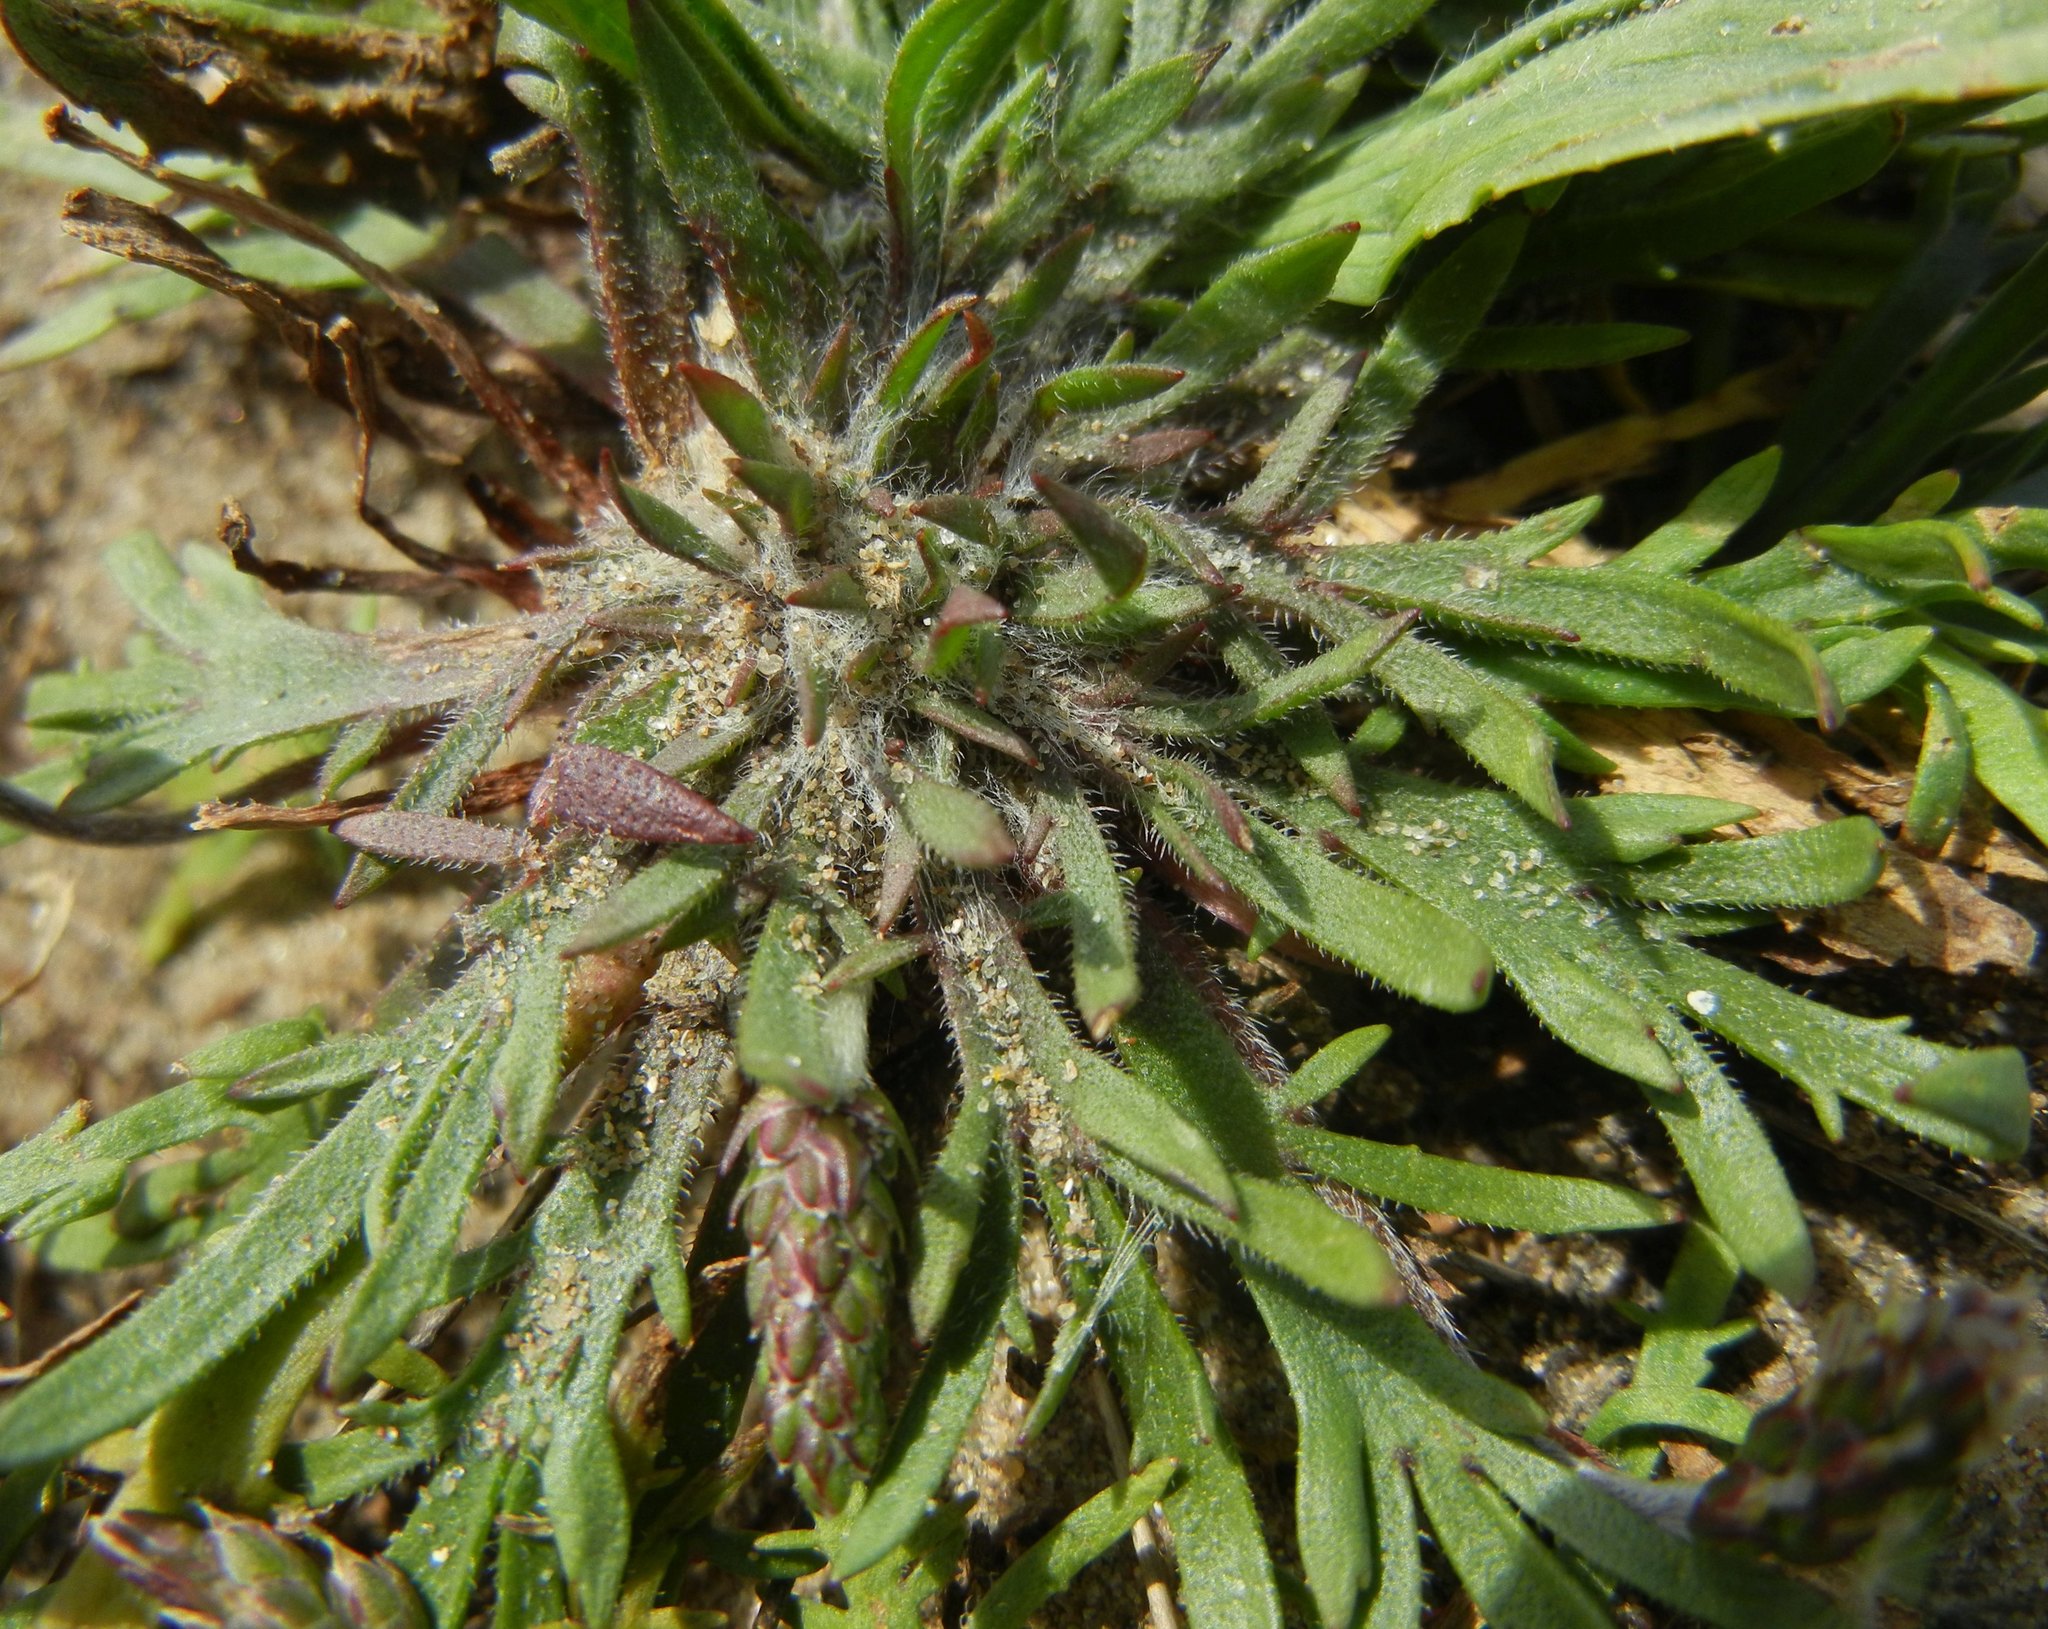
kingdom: Plantae
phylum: Tracheophyta
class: Magnoliopsida
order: Lamiales
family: Plantaginaceae
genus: Plantago
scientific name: Plantago coronopus
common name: Buck's-horn plantain
